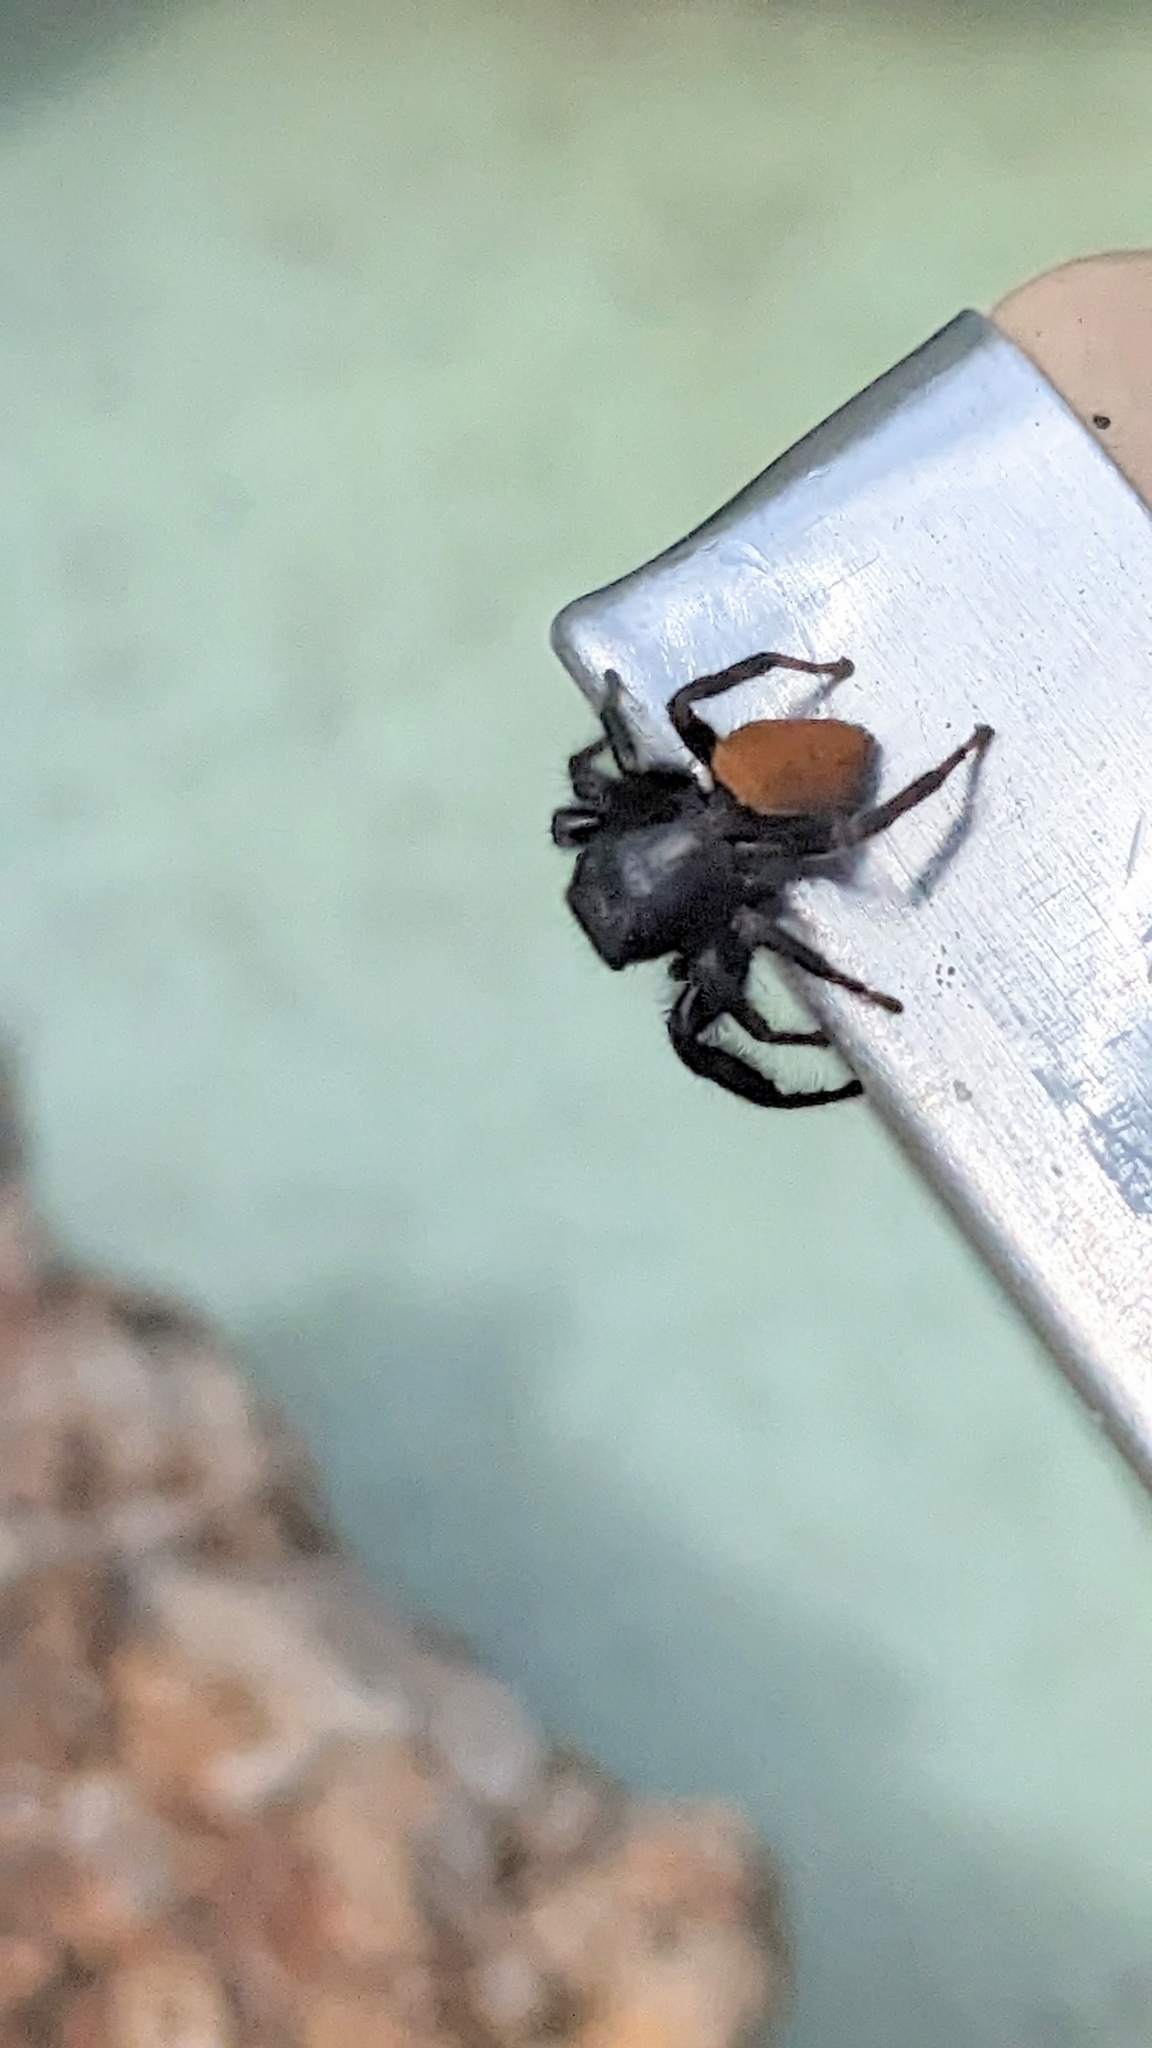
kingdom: Animalia
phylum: Arthropoda
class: Arachnida
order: Araneae
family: Salticidae
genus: Phidippus
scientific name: Phidippus princeps
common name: Grayish jumping spider
